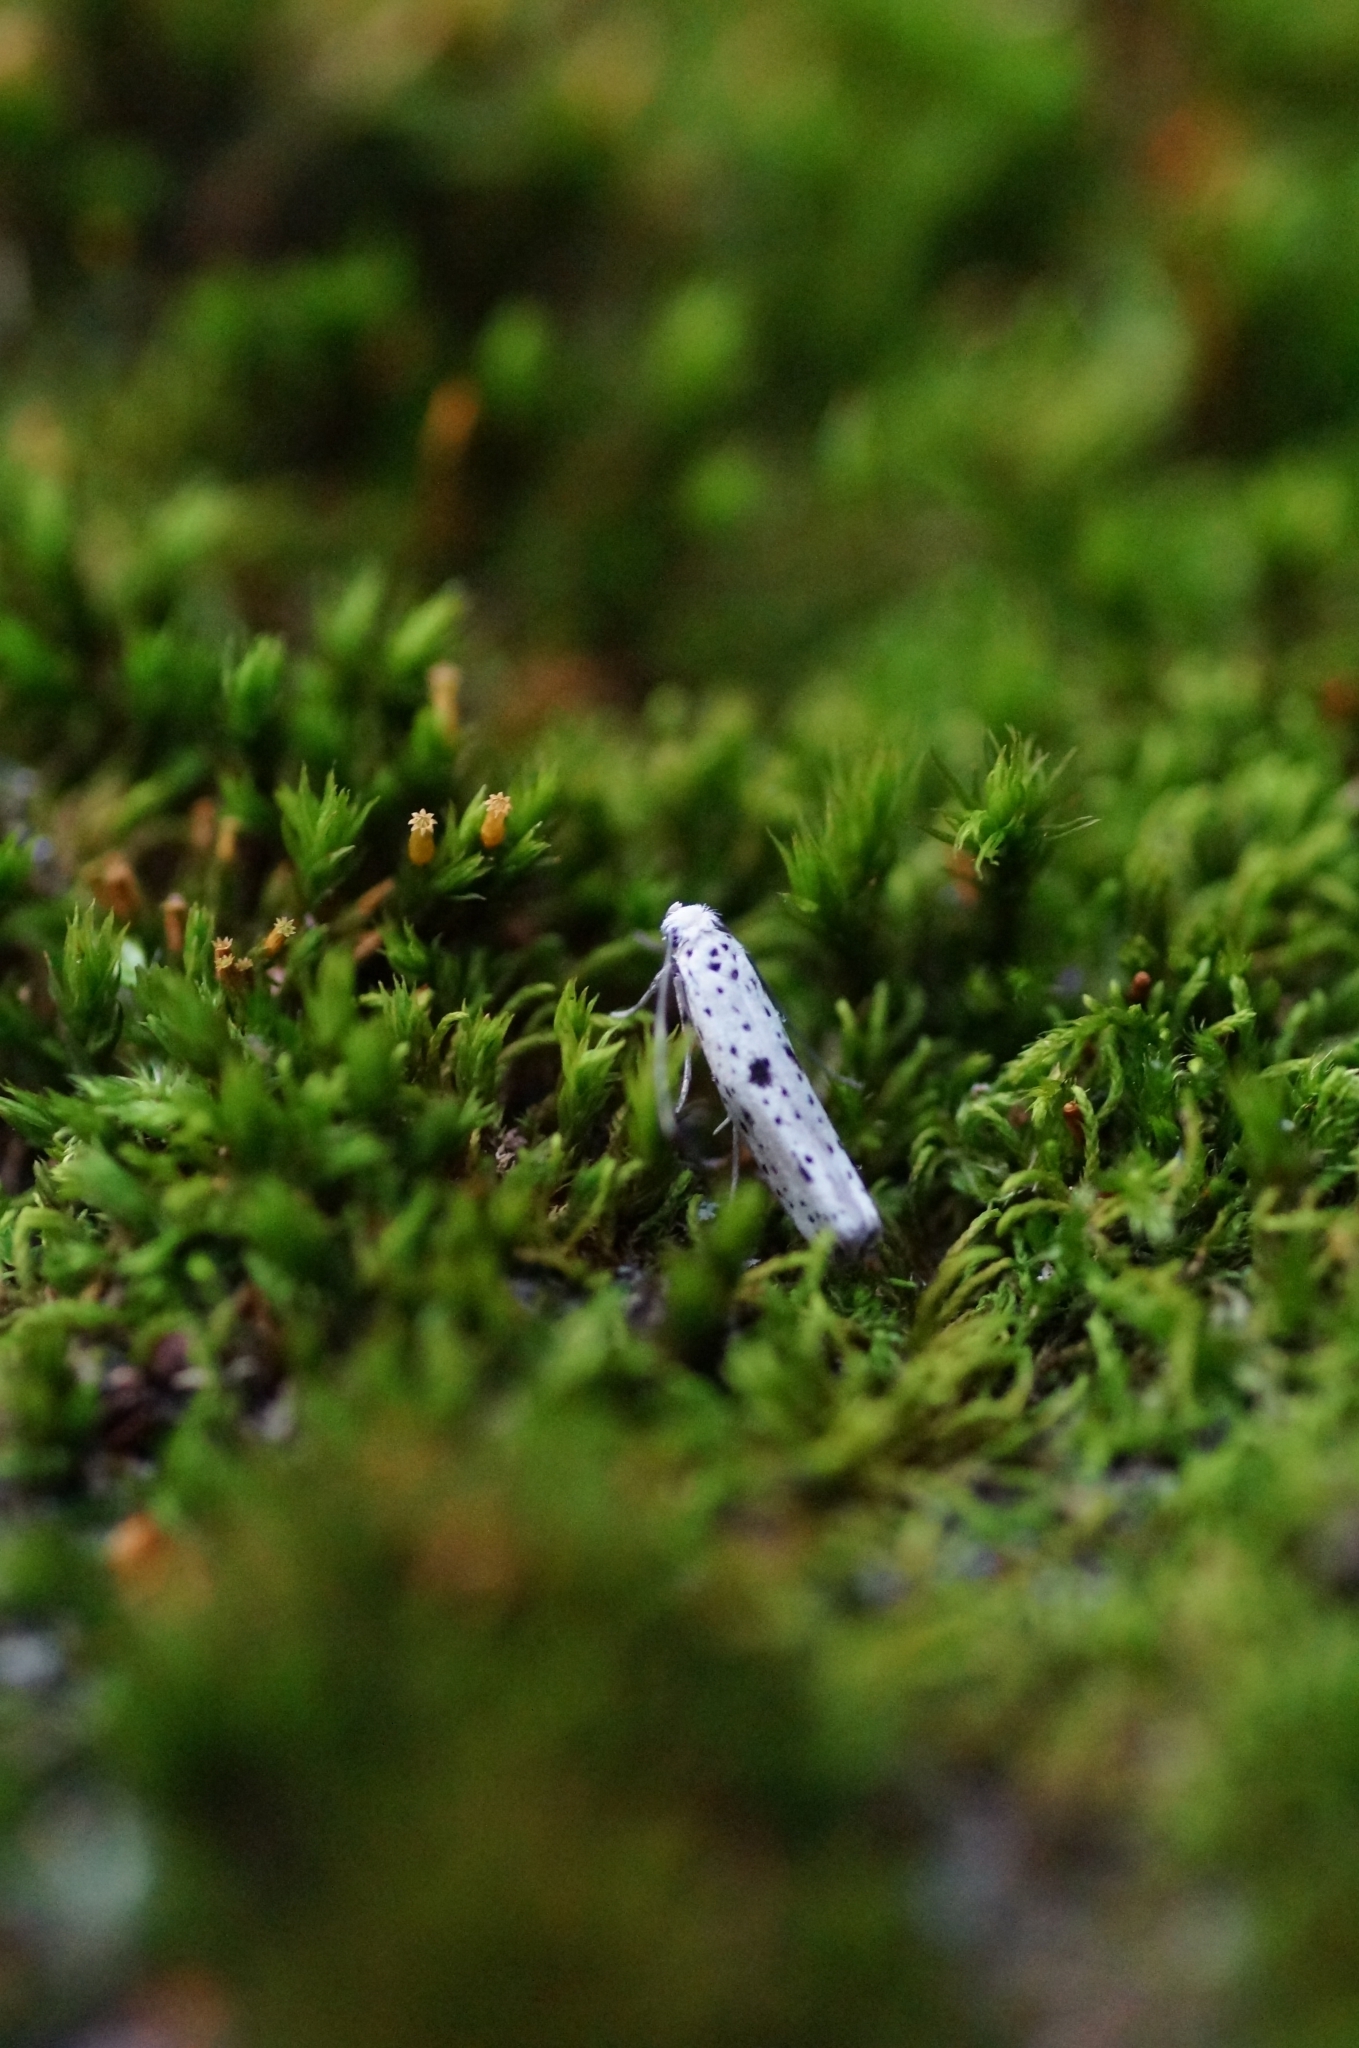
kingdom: Animalia
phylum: Arthropoda
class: Insecta
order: Lepidoptera
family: Yponomeutidae
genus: Yponomeuta
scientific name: Yponomeuta plumbella
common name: Black-tipped ermine
